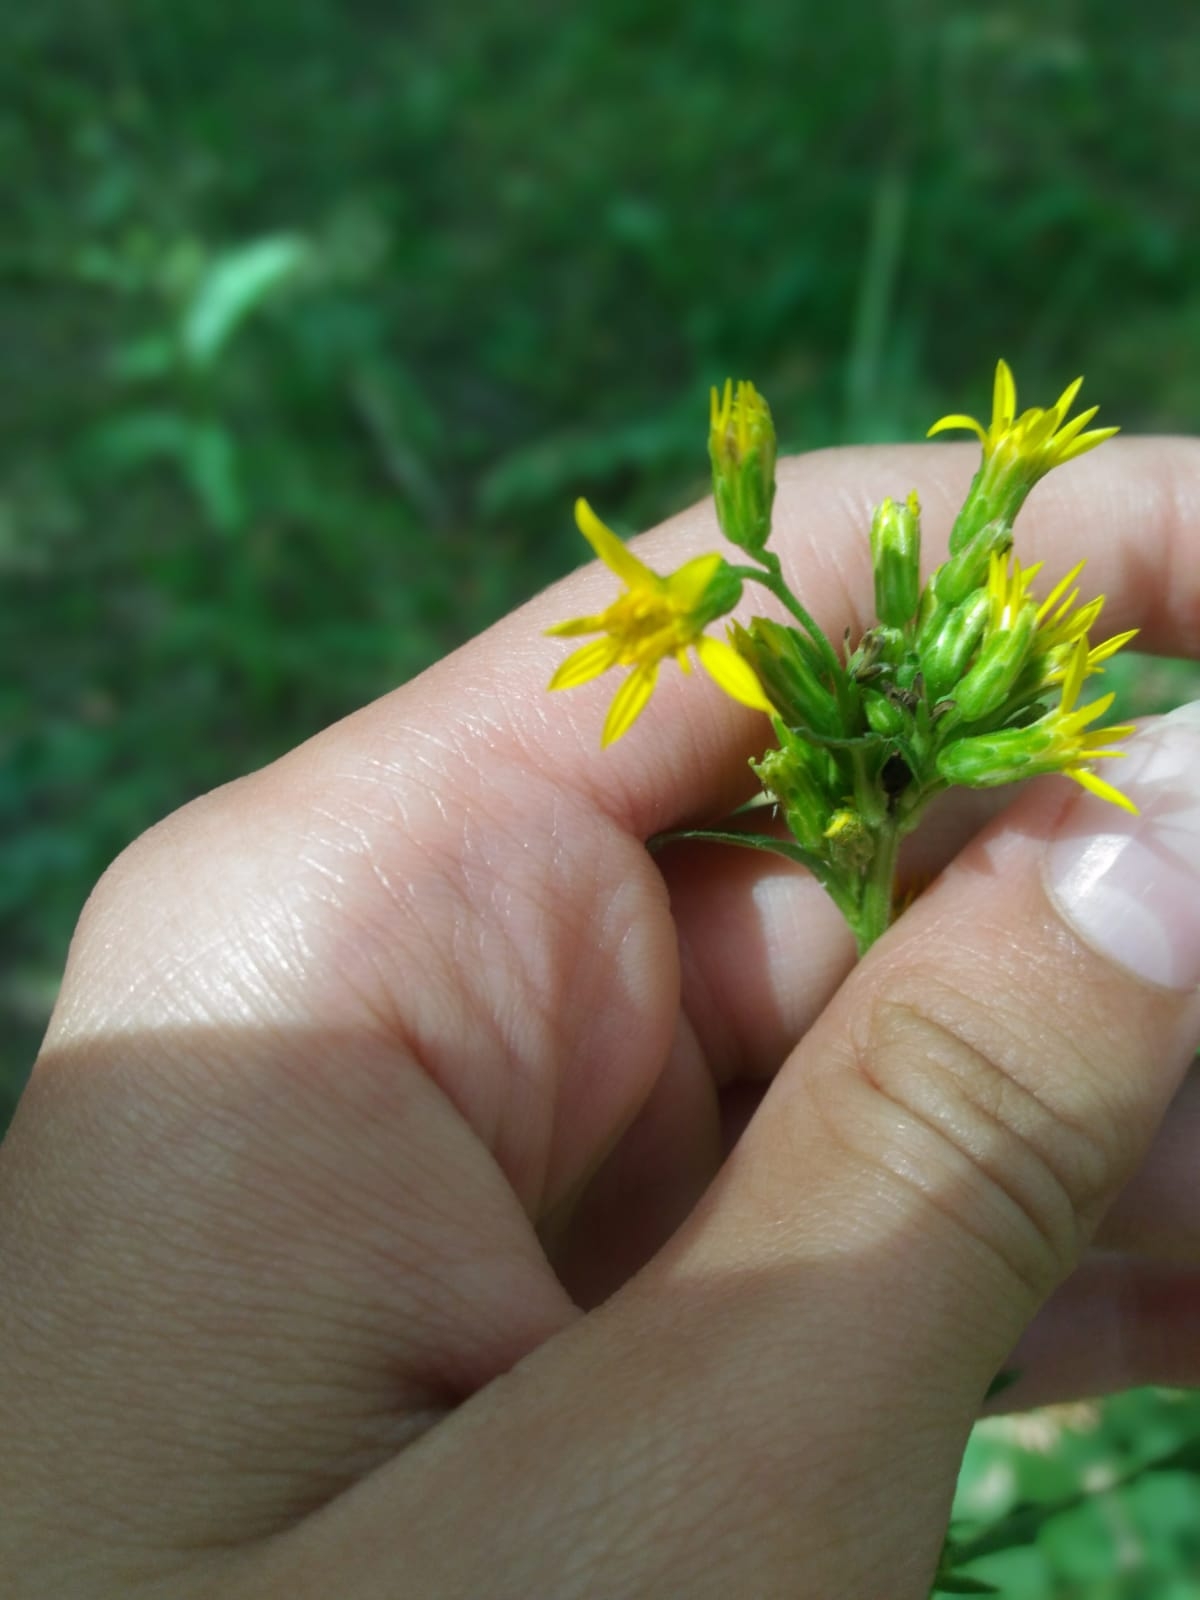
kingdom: Plantae
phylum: Tracheophyta
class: Magnoliopsida
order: Asterales
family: Asteraceae
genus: Solidago
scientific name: Solidago virgaurea
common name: Goldenrod
